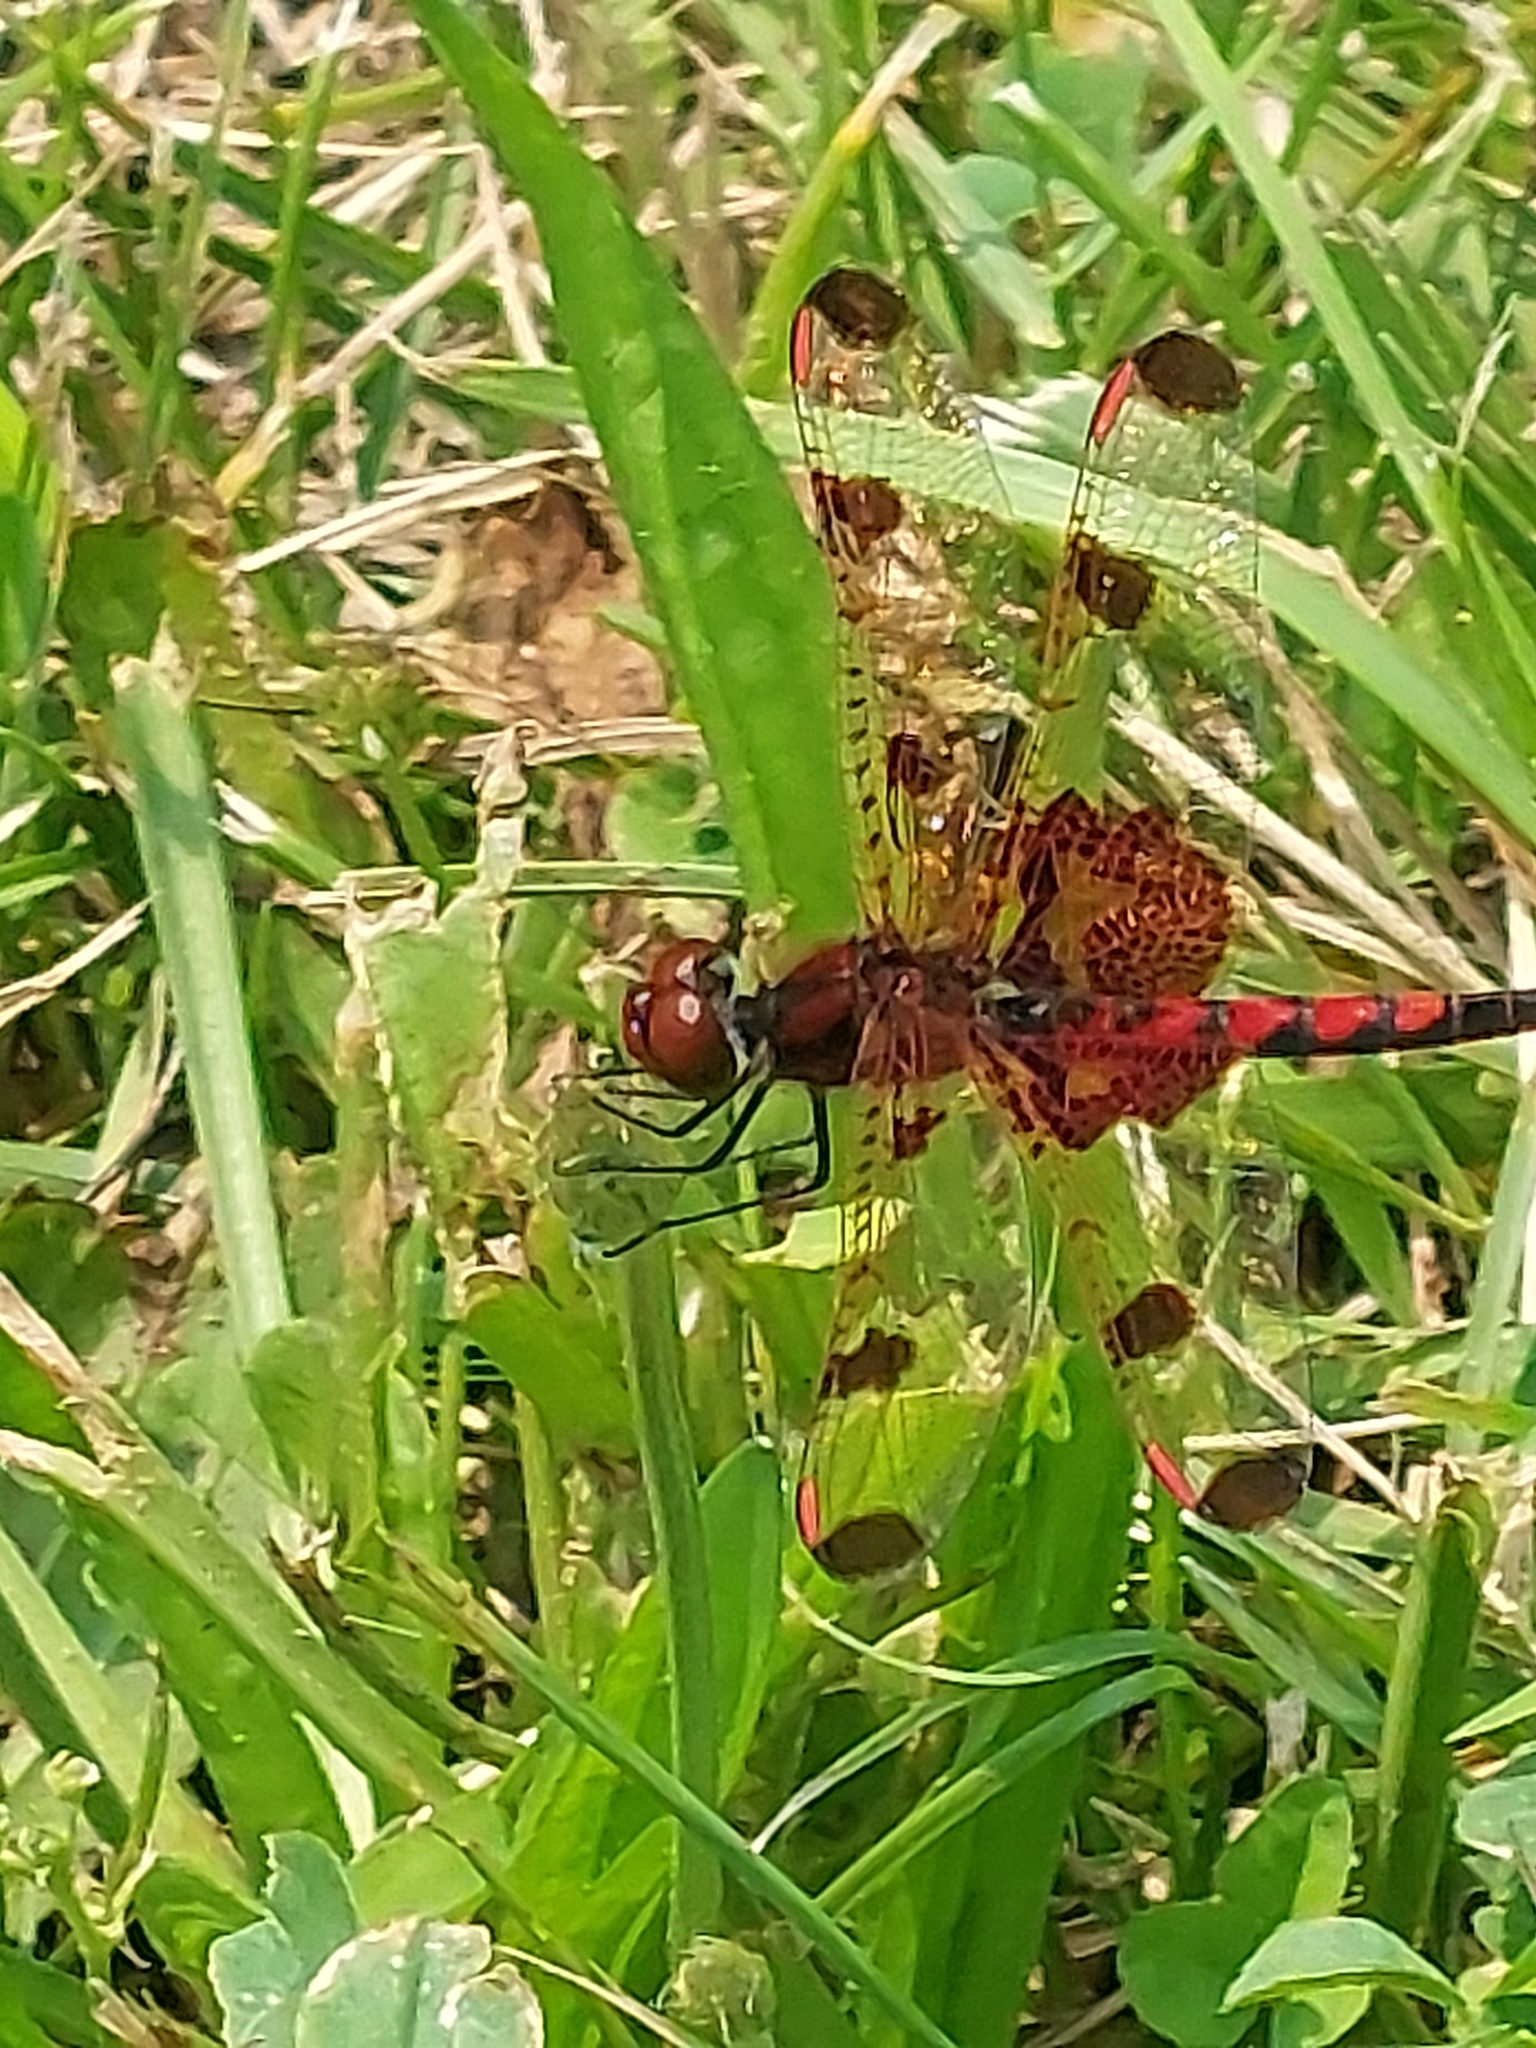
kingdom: Animalia
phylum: Arthropoda
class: Insecta
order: Odonata
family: Libellulidae
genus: Celithemis
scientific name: Celithemis elisa
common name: Calico pennant
